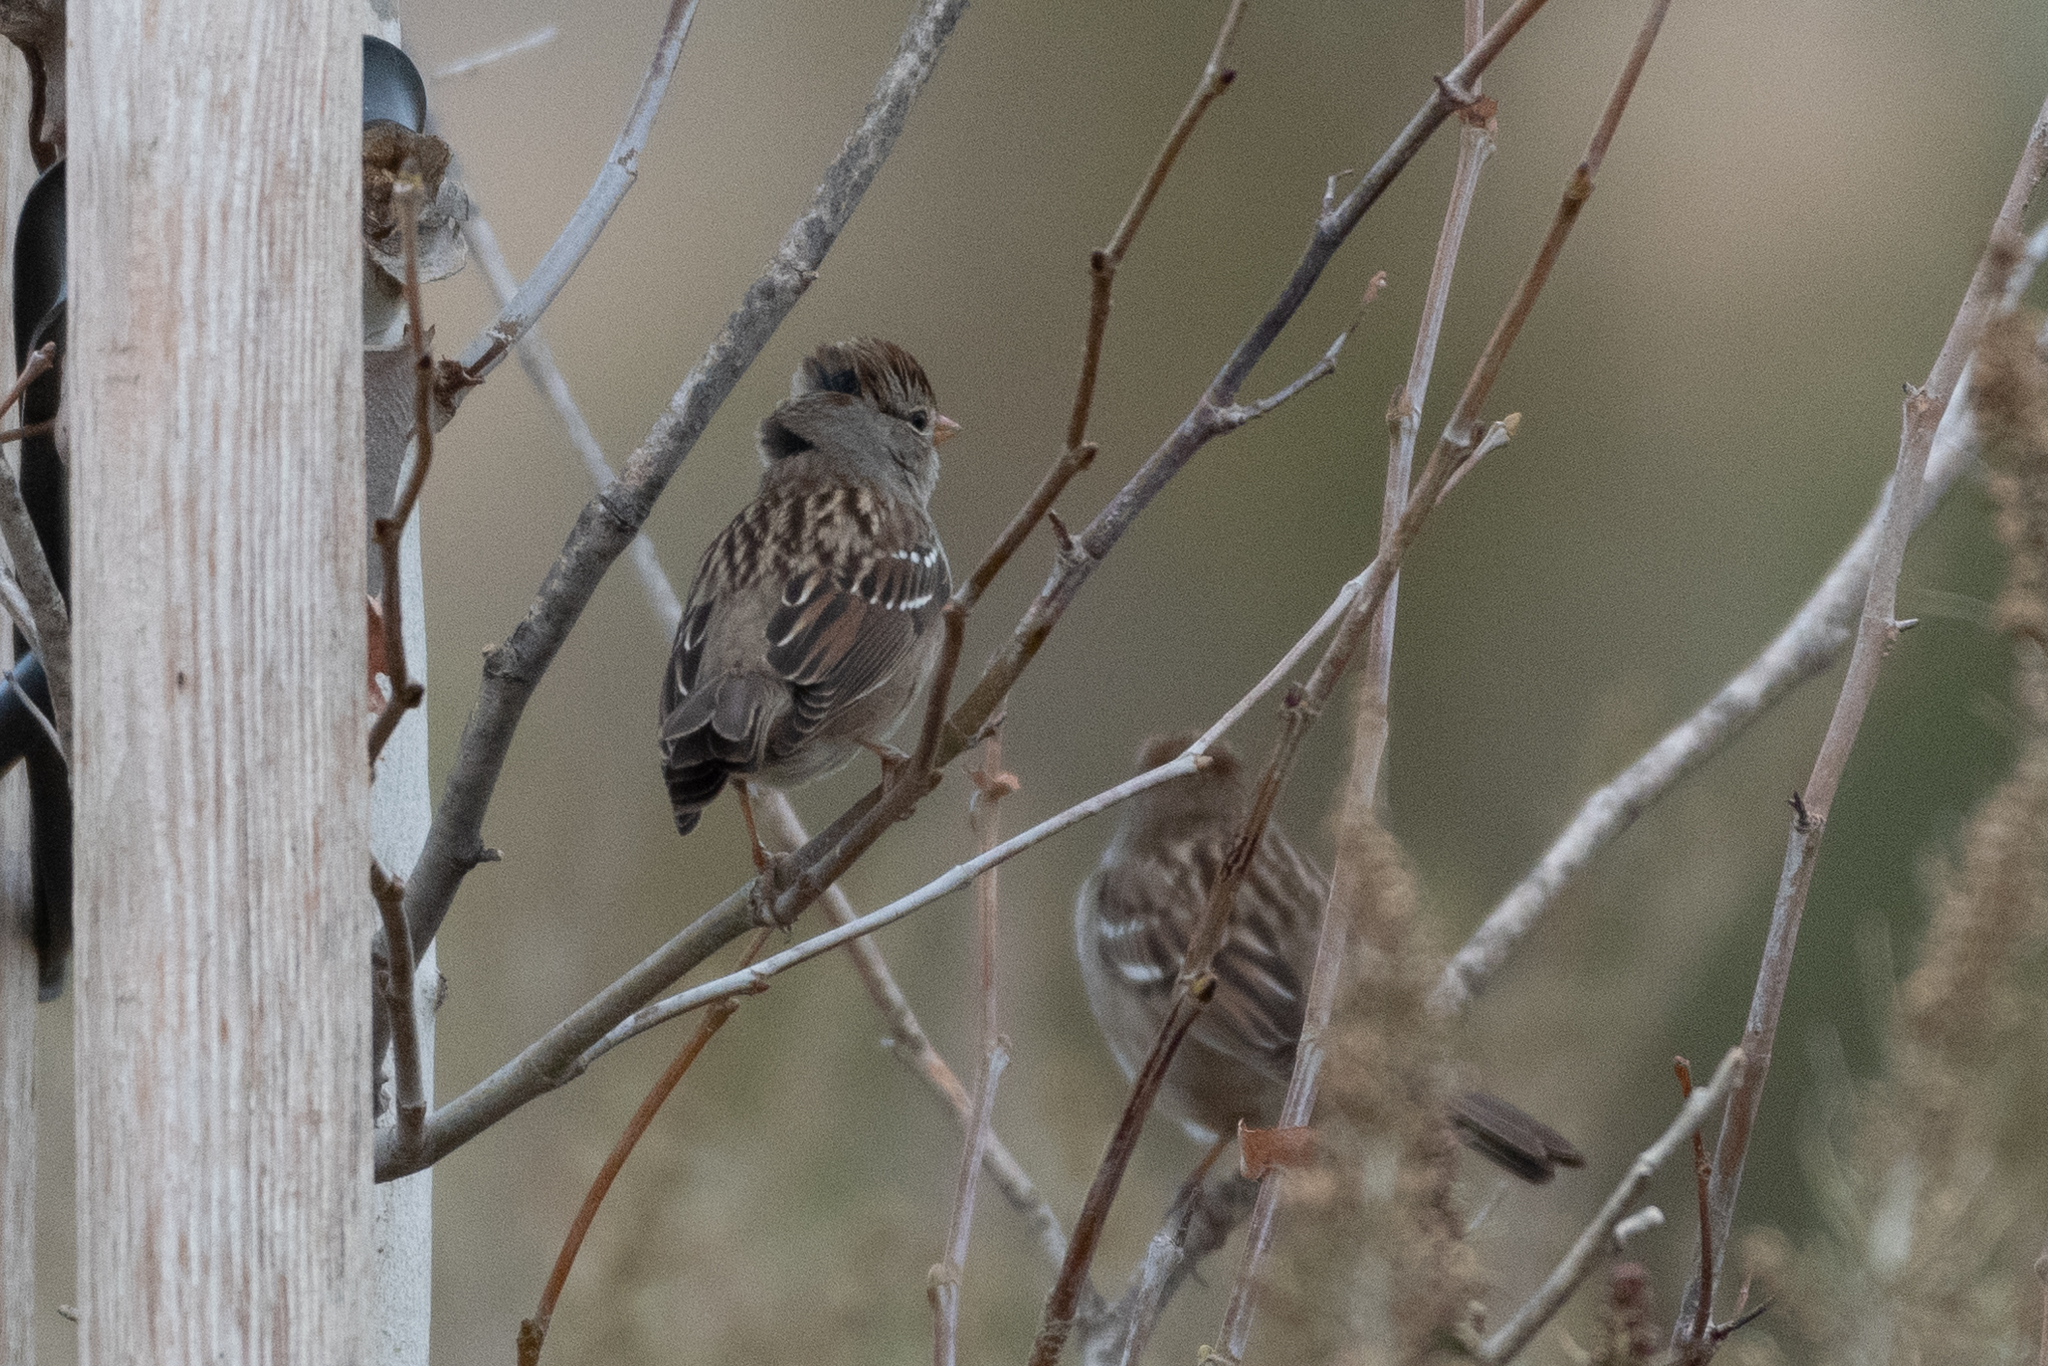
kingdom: Animalia
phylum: Chordata
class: Aves
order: Passeriformes
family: Passerellidae
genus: Zonotrichia
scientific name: Zonotrichia leucophrys
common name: White-crowned sparrow
